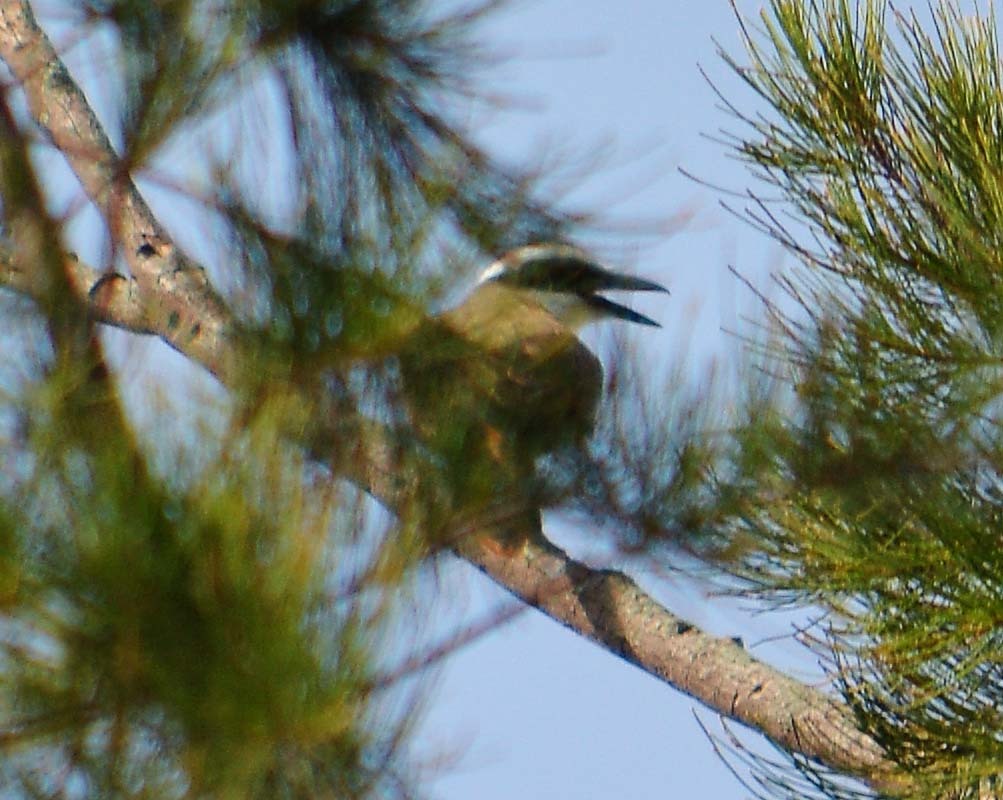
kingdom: Animalia
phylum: Chordata
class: Aves
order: Passeriformes
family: Tyrannidae
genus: Pitangus
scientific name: Pitangus sulphuratus
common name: Great kiskadee
